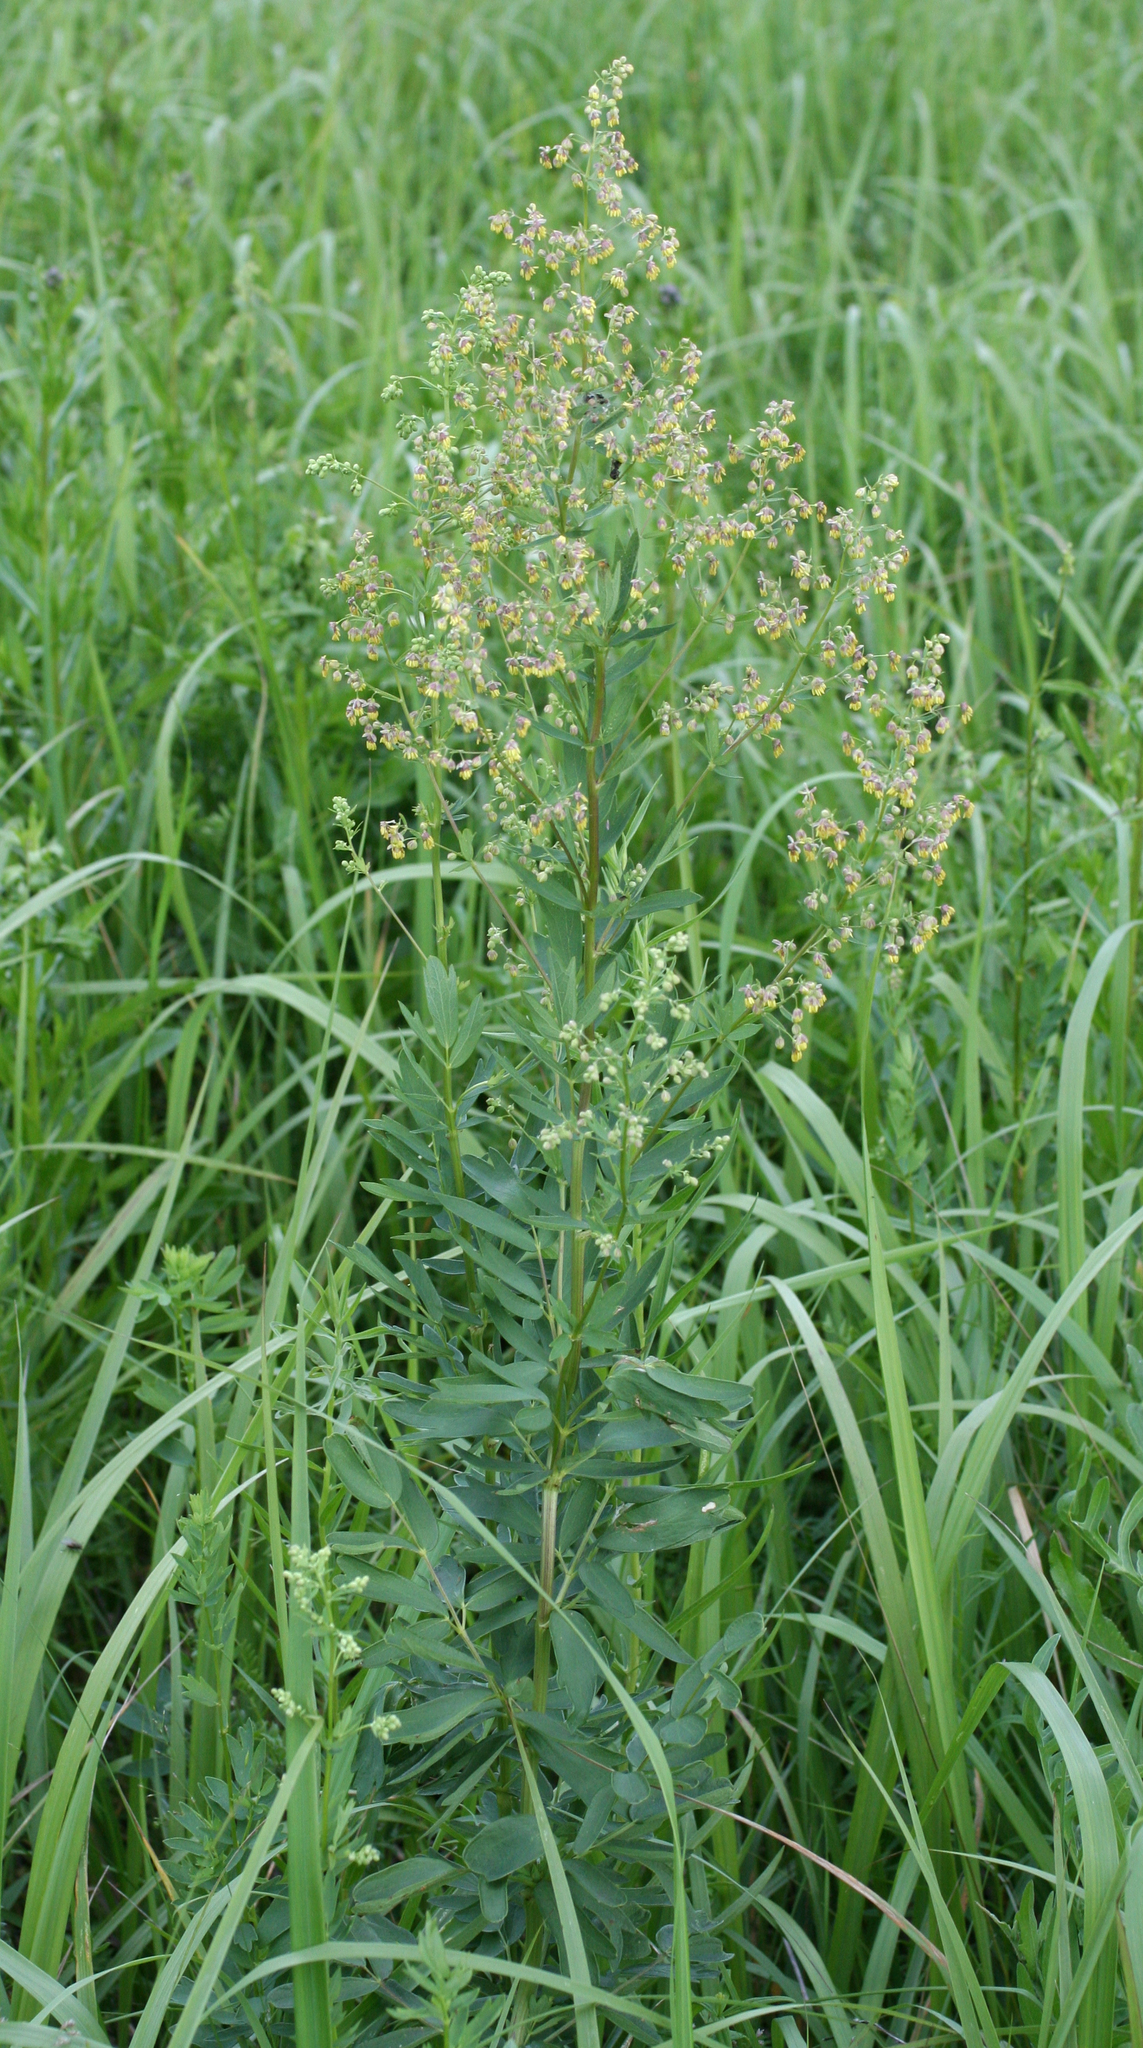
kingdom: Plantae
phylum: Tracheophyta
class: Magnoliopsida
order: Ranunculales
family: Ranunculaceae
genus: Thalictrum
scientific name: Thalictrum simplex
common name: Small meadow-rue
